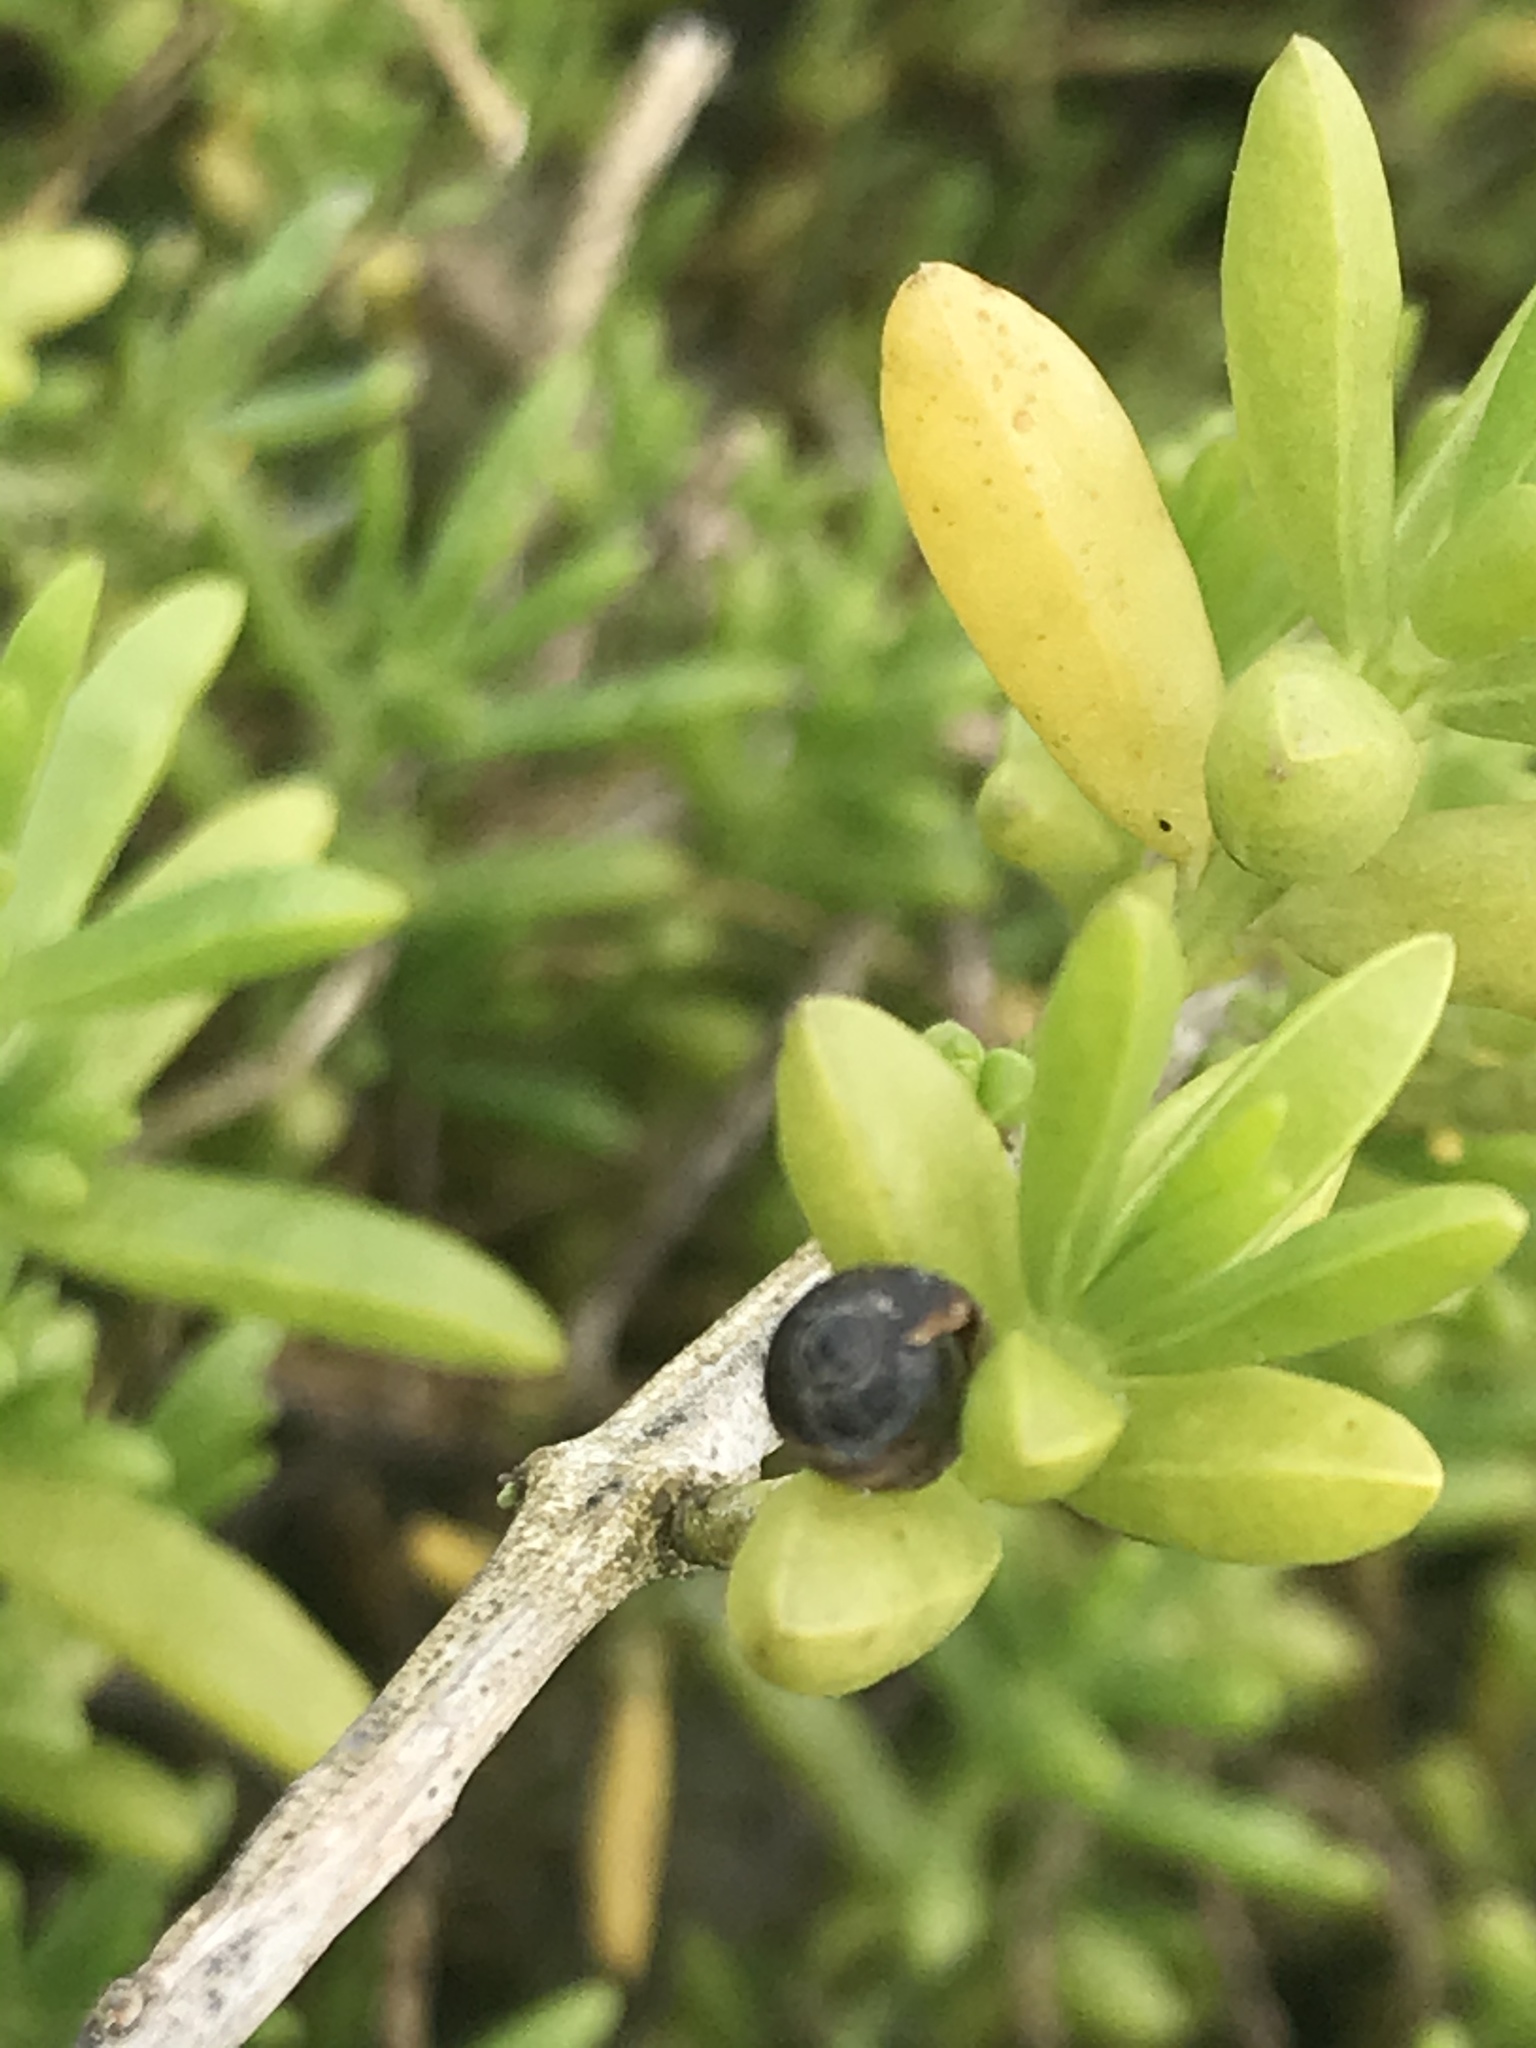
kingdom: Animalia
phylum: Mollusca
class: Gastropoda
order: Ellobiida
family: Ellobiidae
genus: Melampus
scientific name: Melampus olivaceus
